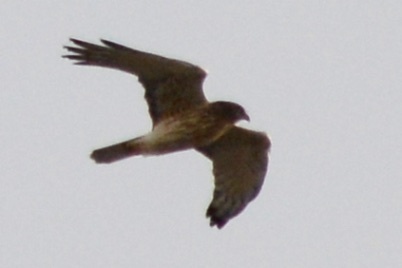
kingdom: Animalia
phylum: Chordata
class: Aves
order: Accipitriformes
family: Accipitridae
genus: Circus
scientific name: Circus approximans
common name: Swamp harrier
